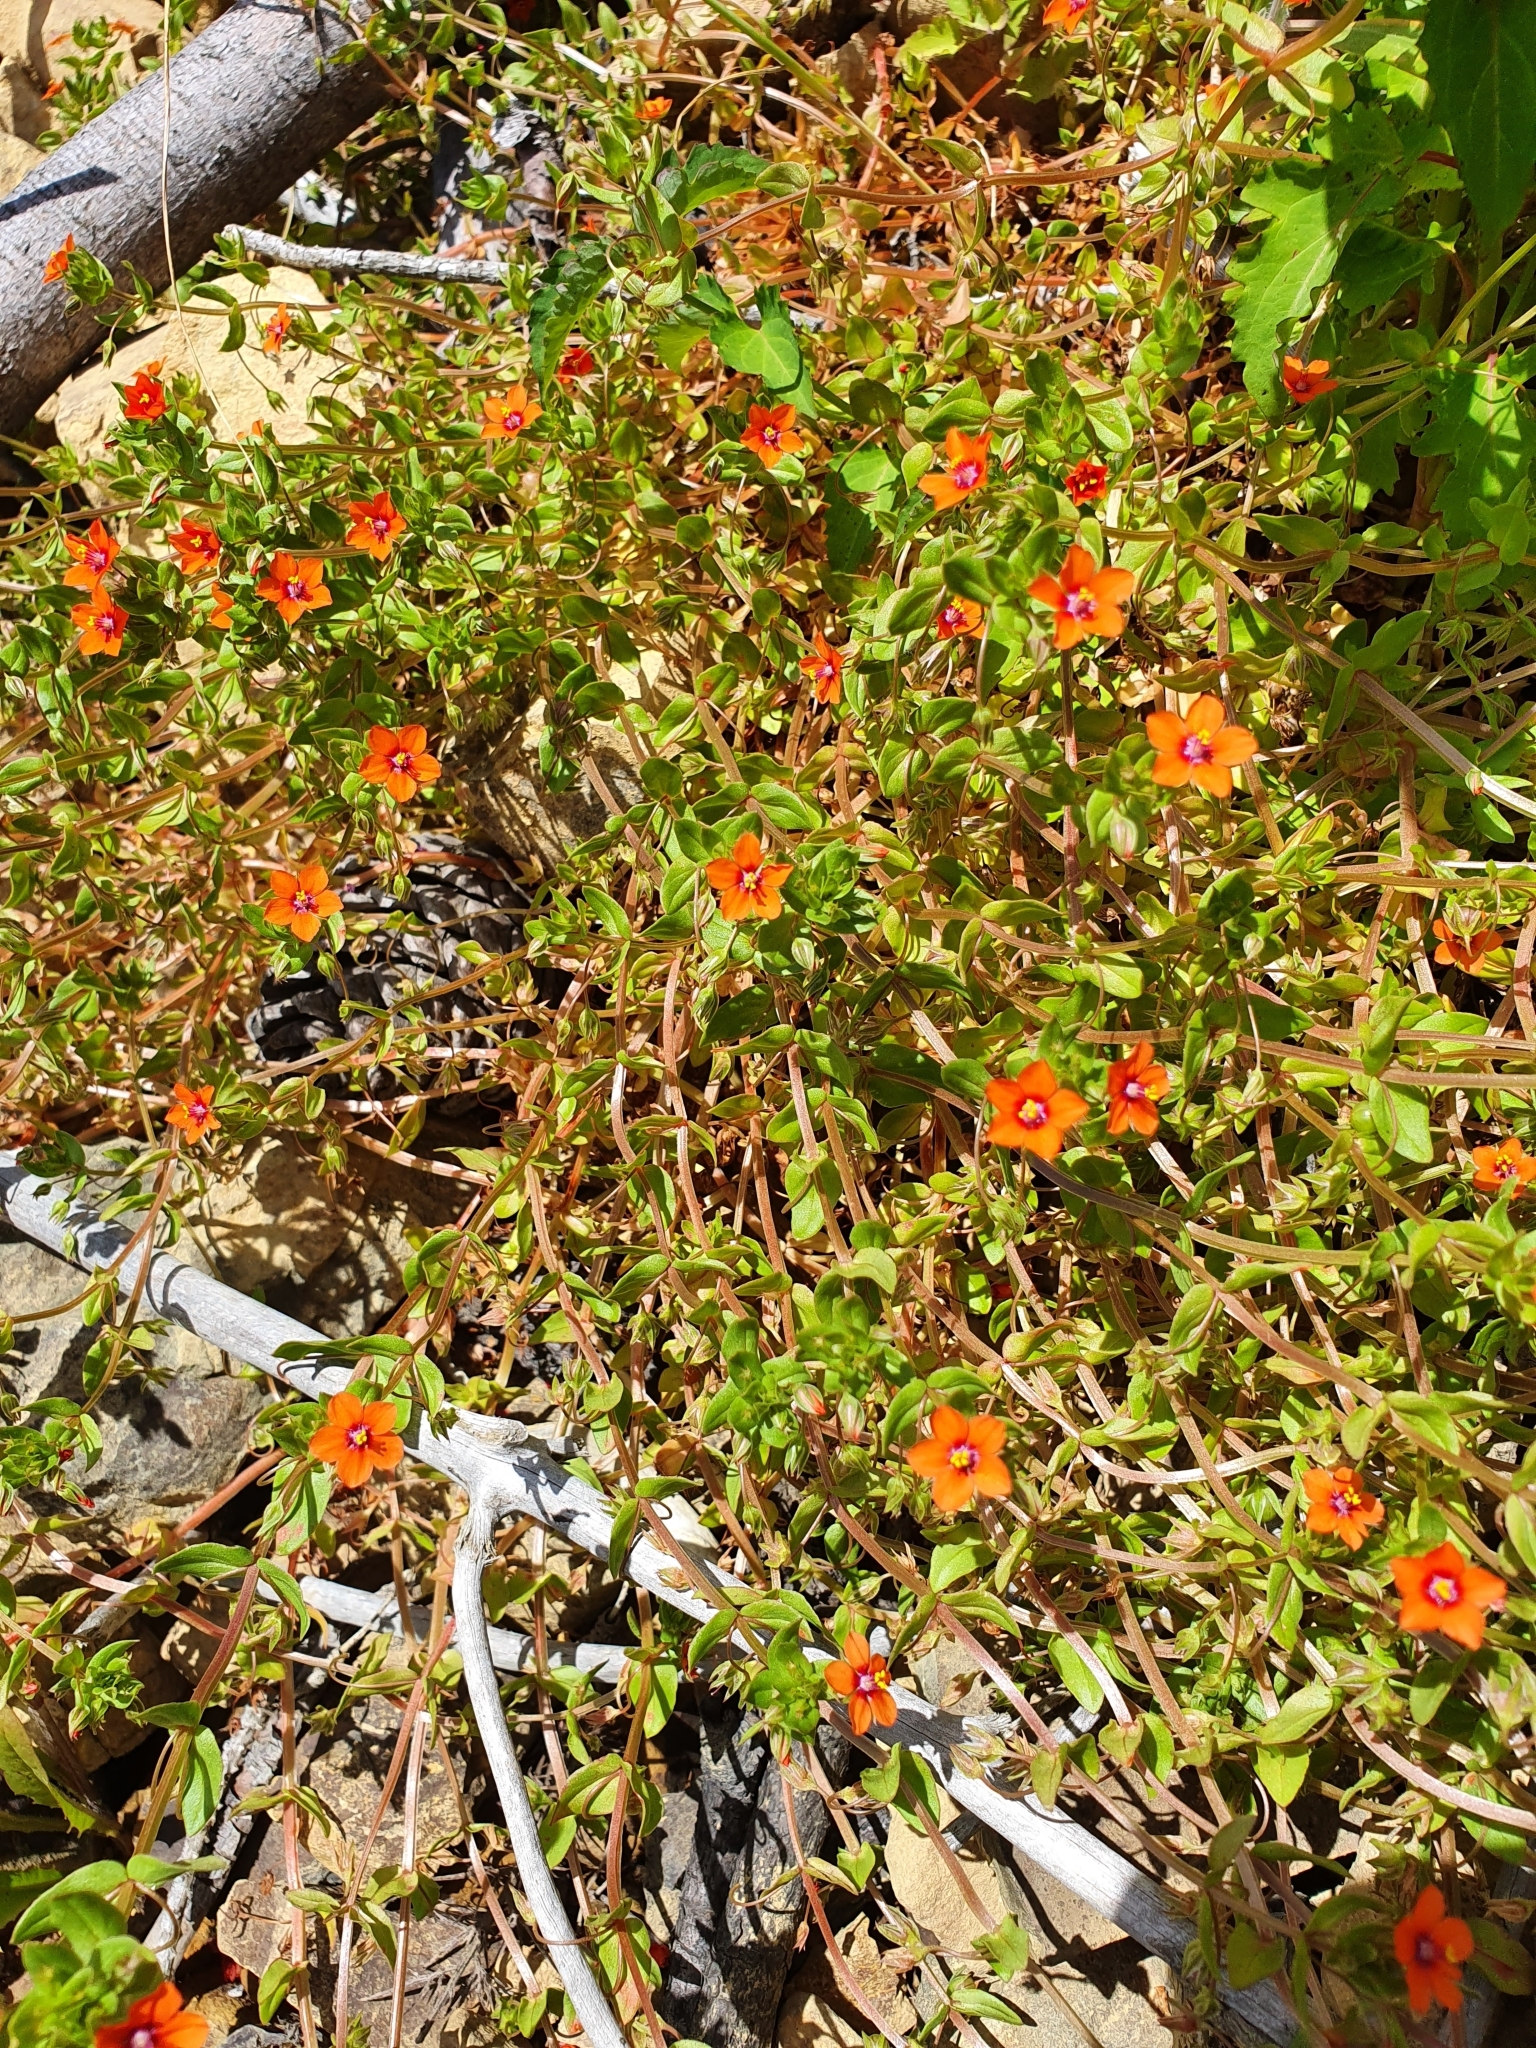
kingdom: Plantae
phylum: Tracheophyta
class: Magnoliopsida
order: Ericales
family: Primulaceae
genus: Lysimachia
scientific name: Lysimachia arvensis
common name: Scarlet pimpernel
